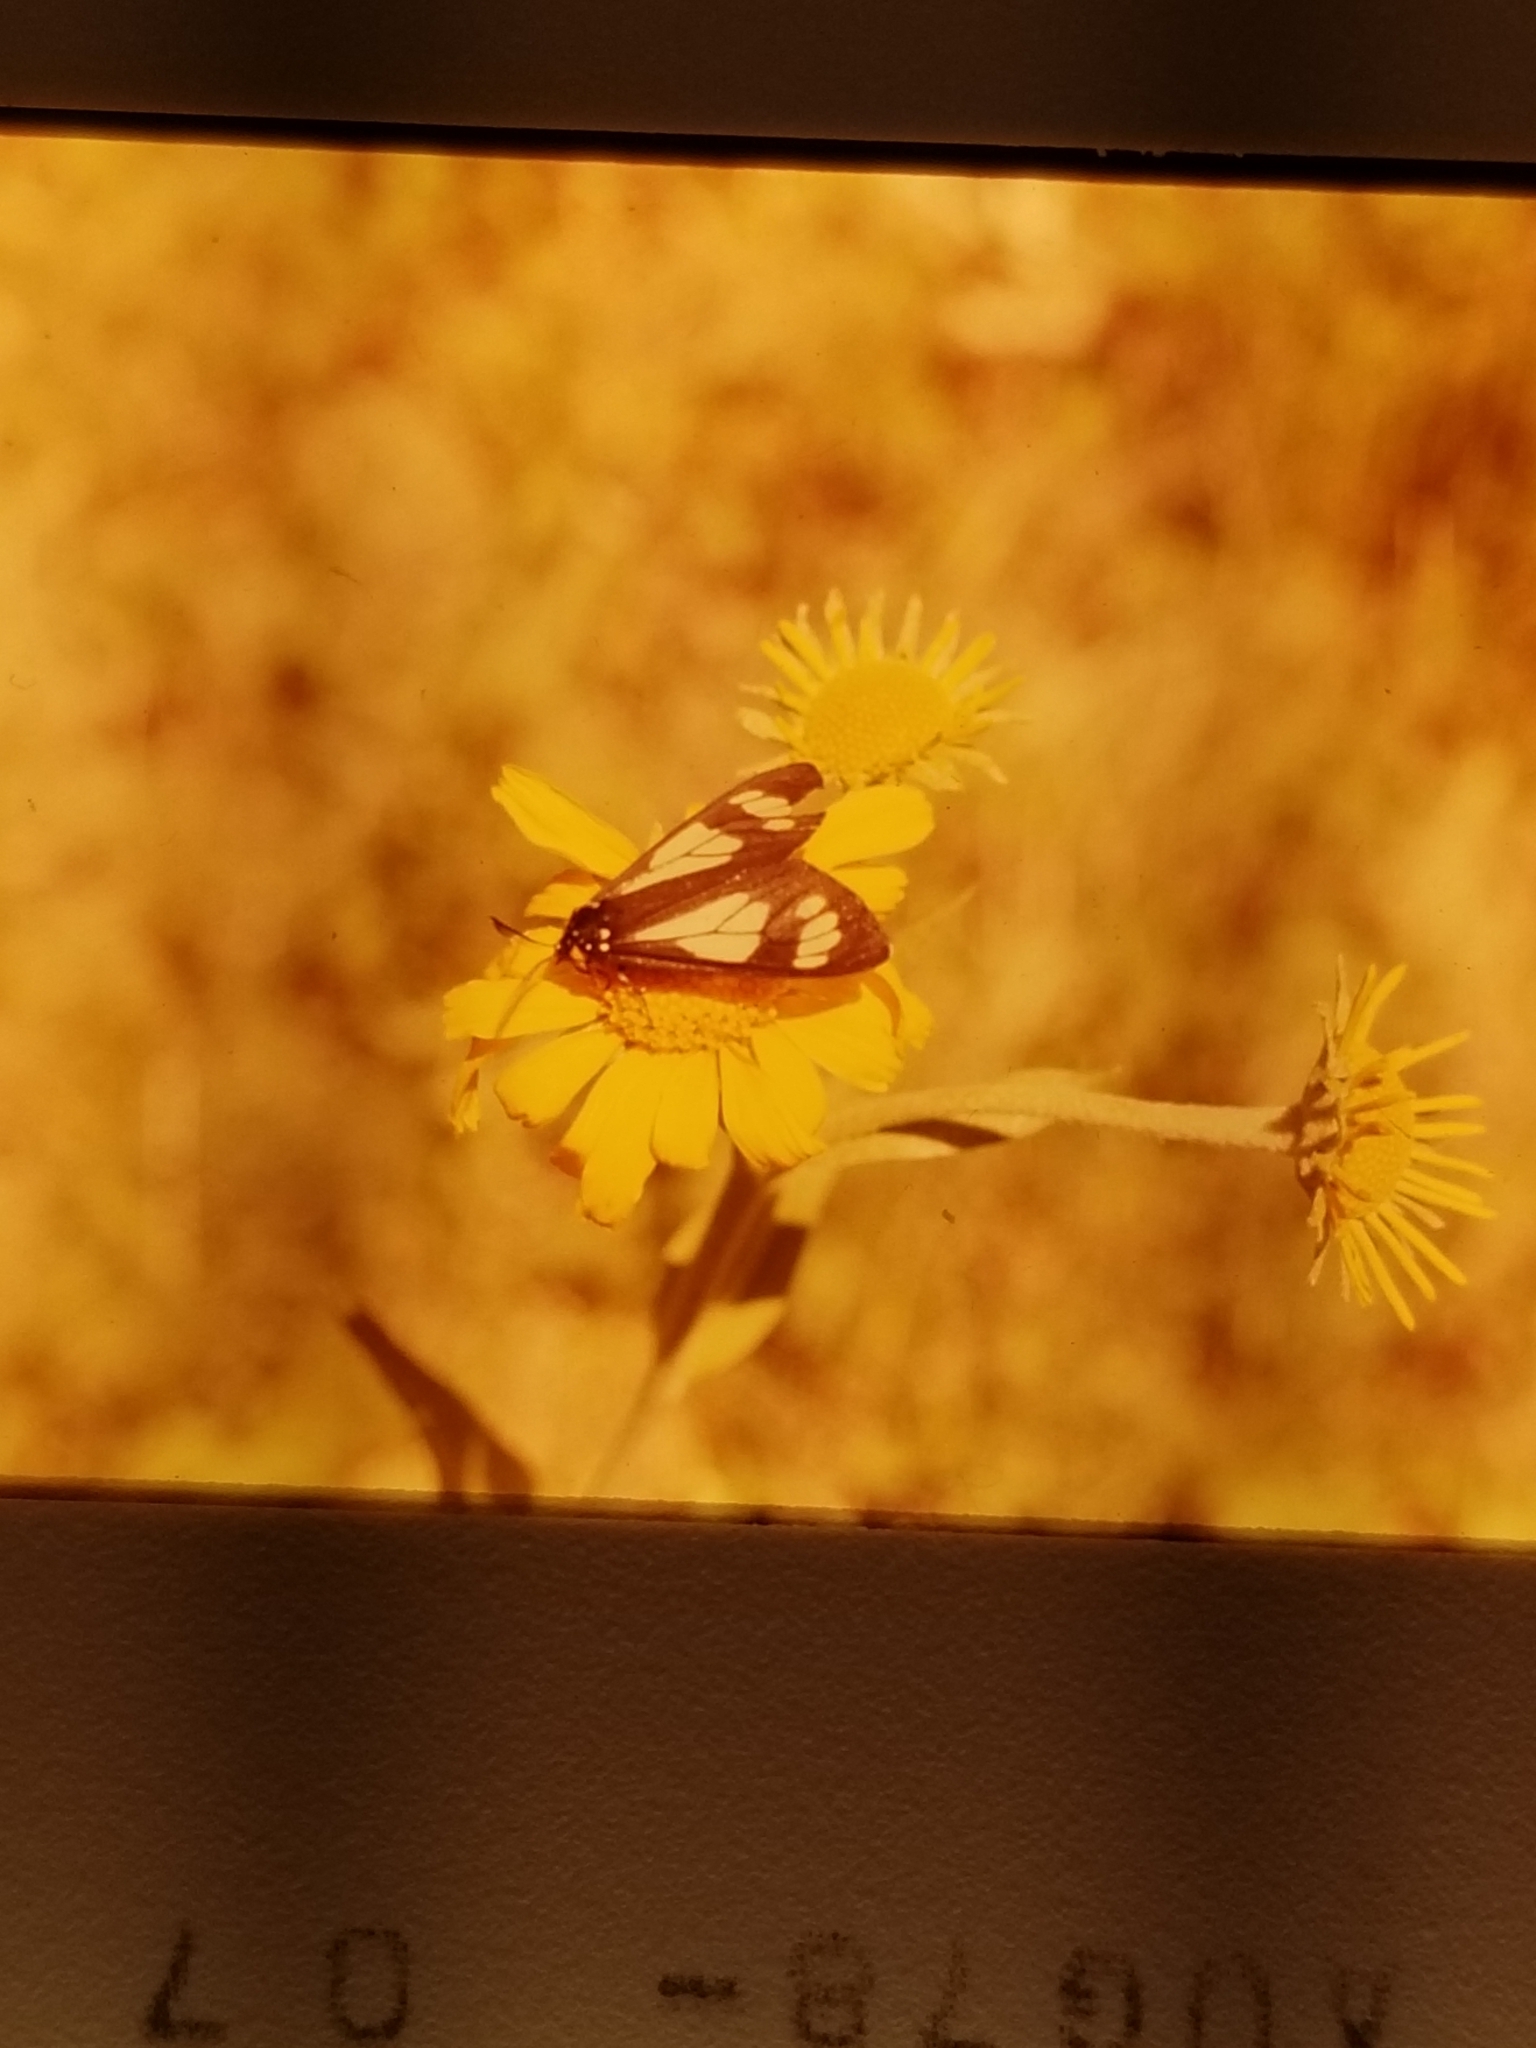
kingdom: Animalia
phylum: Arthropoda
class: Insecta
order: Lepidoptera
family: Erebidae
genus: Gnophaela
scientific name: Gnophaela vermiculata
